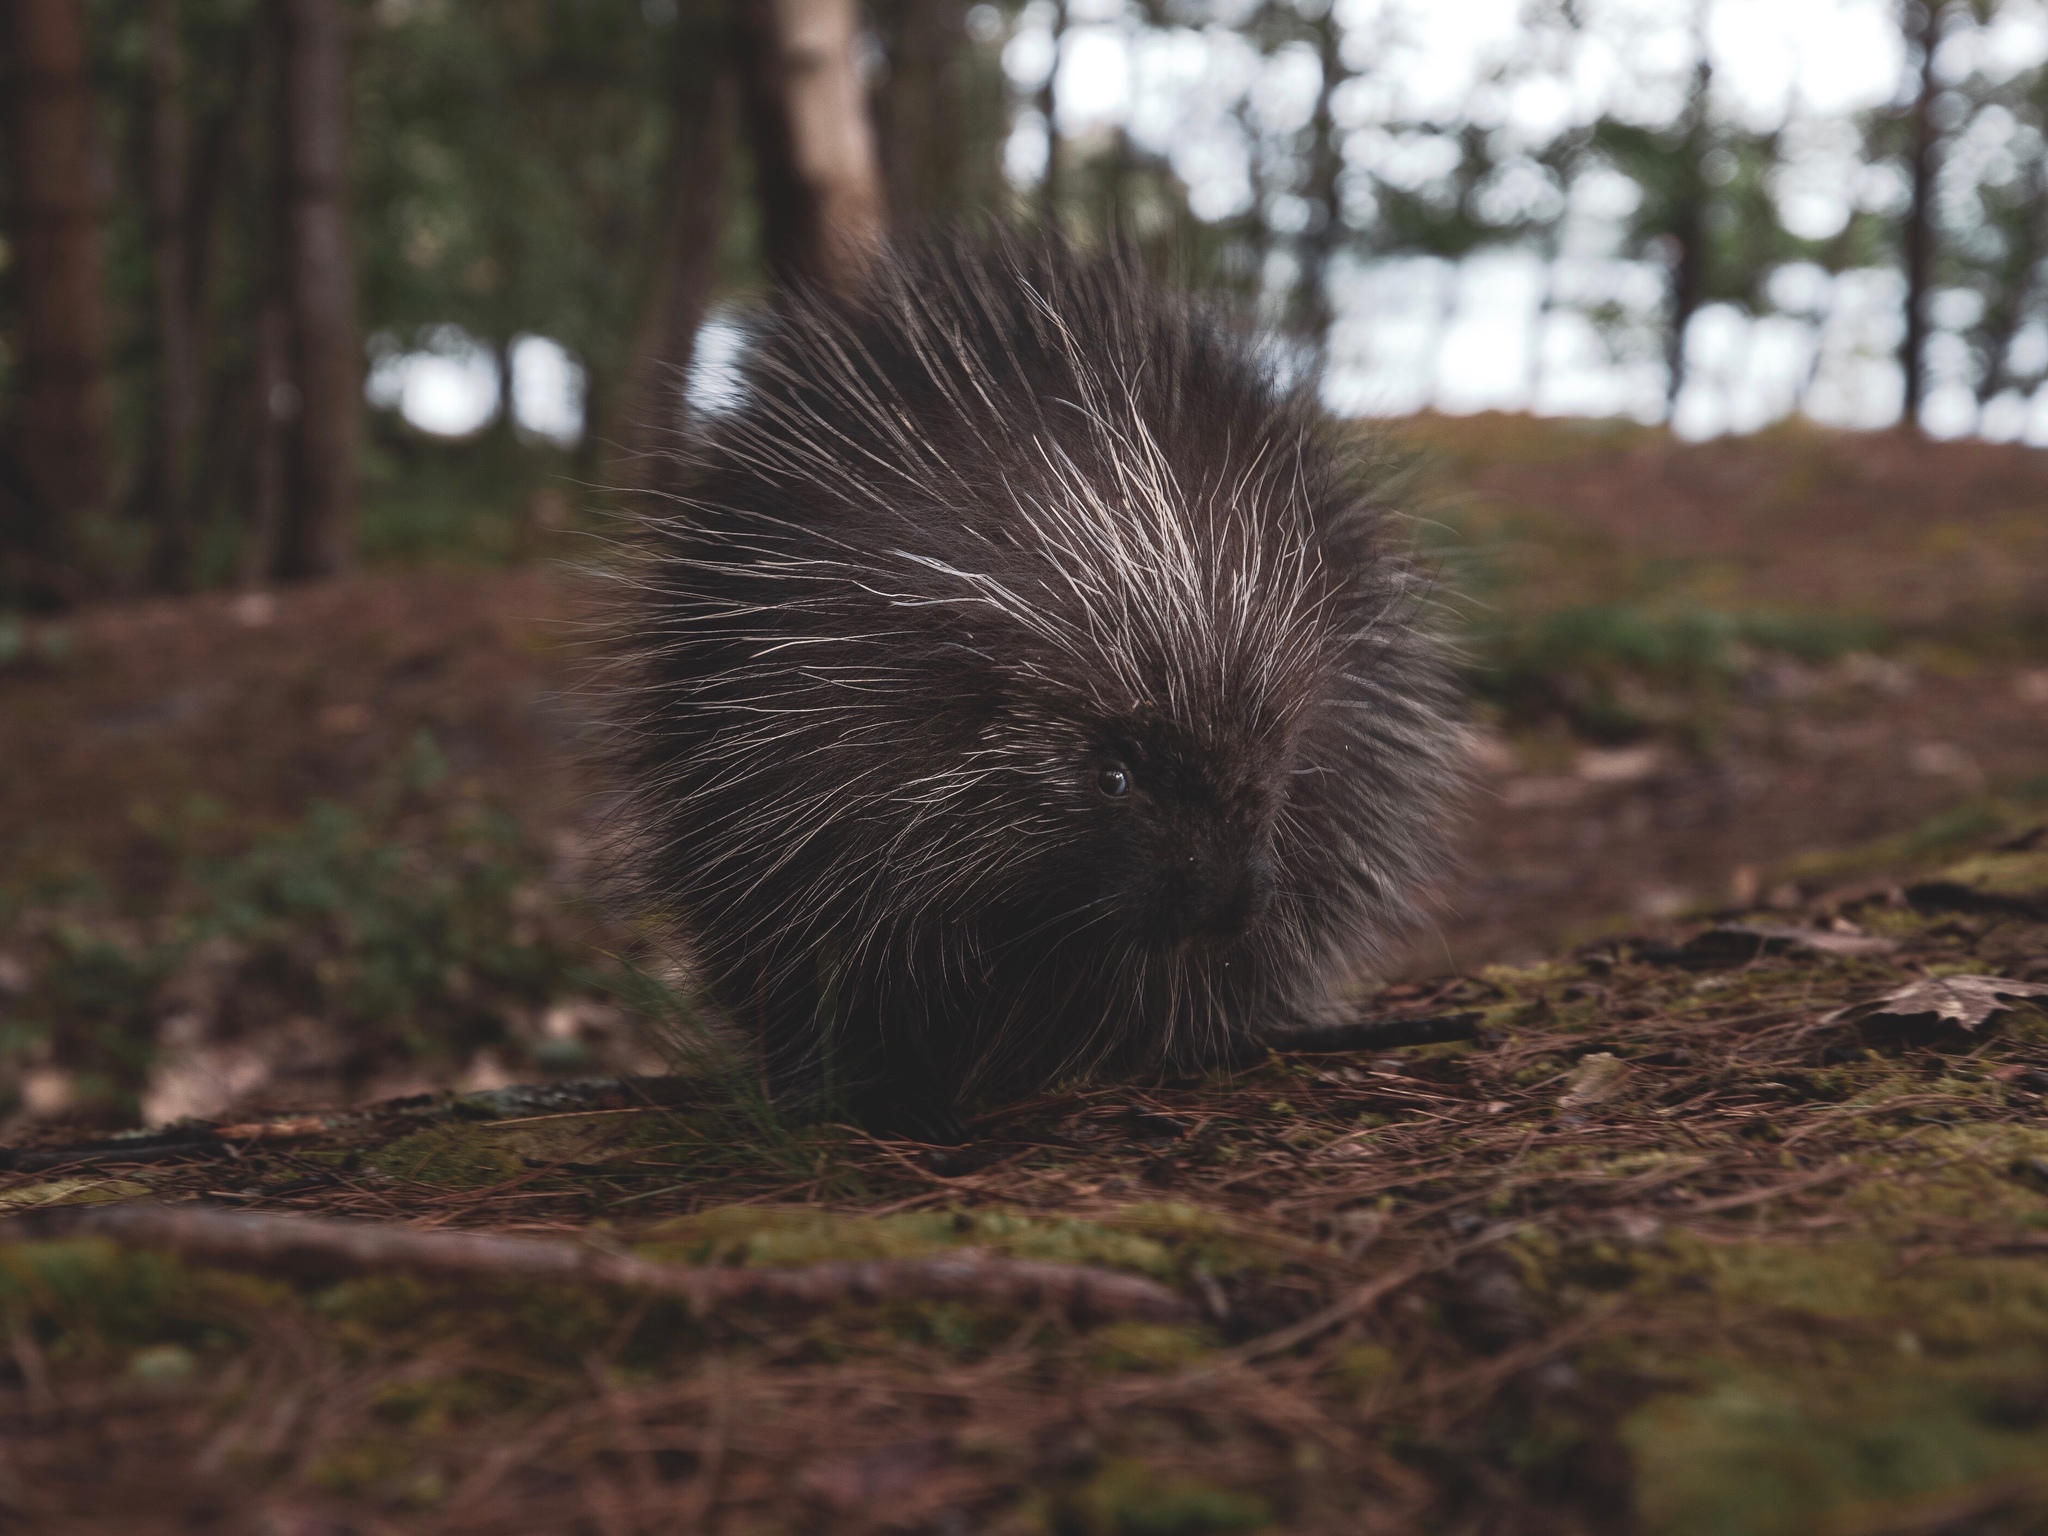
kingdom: Animalia
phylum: Chordata
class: Mammalia
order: Rodentia
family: Erethizontidae
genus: Erethizon
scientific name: Erethizon dorsatus
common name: North american porcupine
